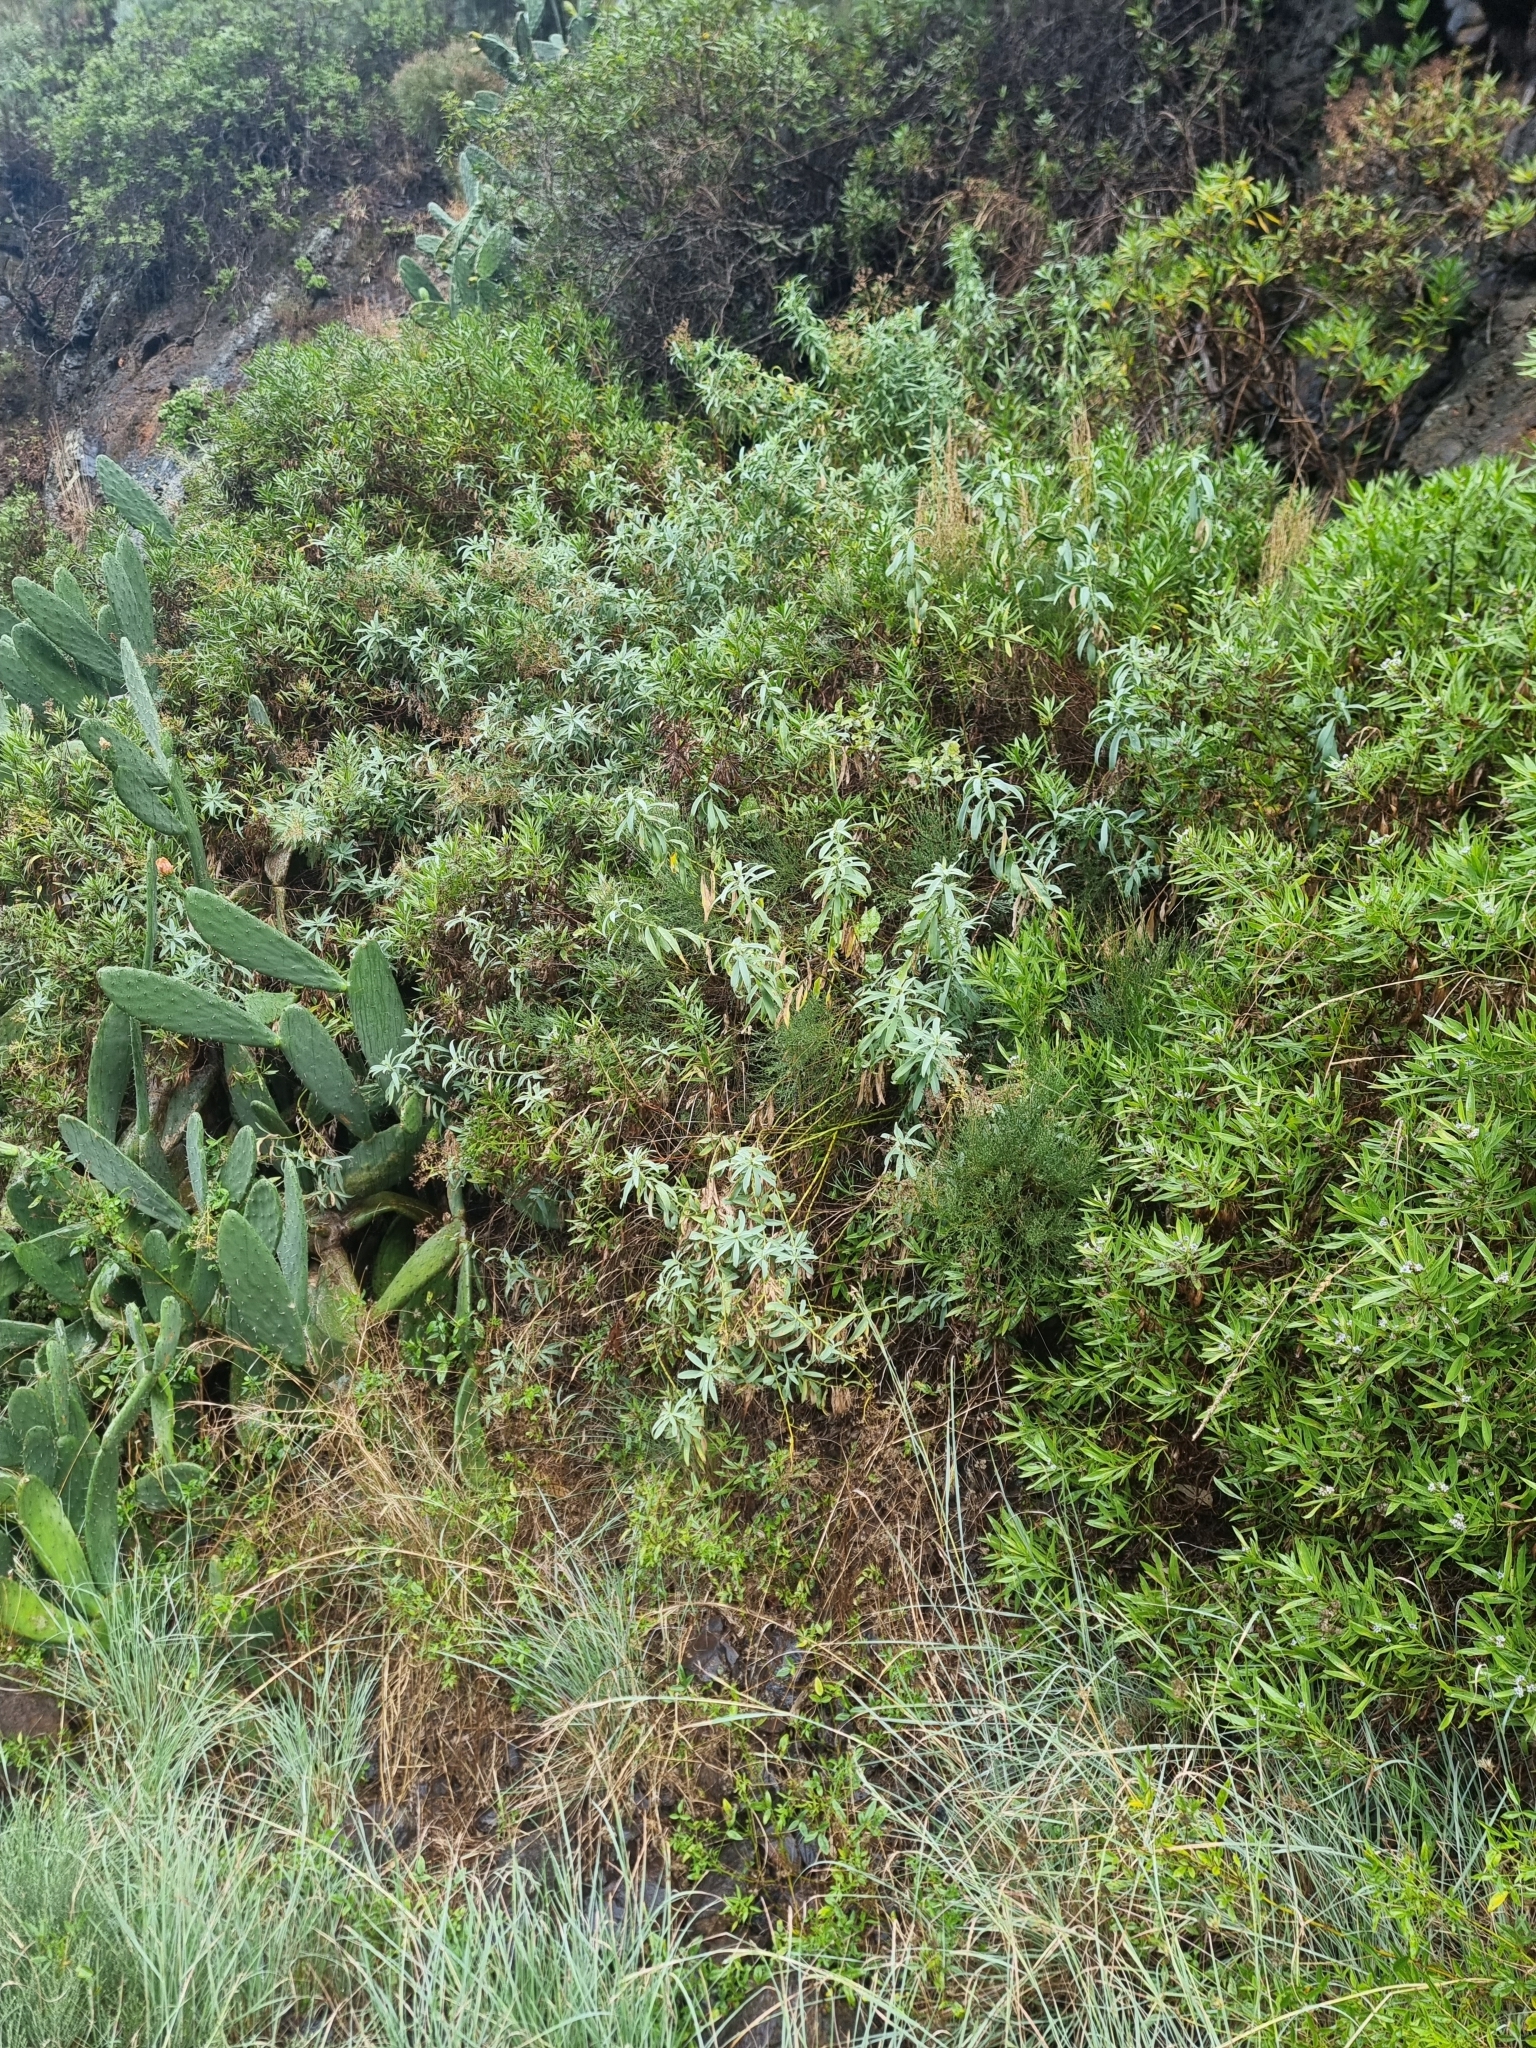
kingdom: Plantae
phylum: Tracheophyta
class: Magnoliopsida
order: Apiales
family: Apiaceae
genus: Bupleurum
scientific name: Bupleurum salicifolium
